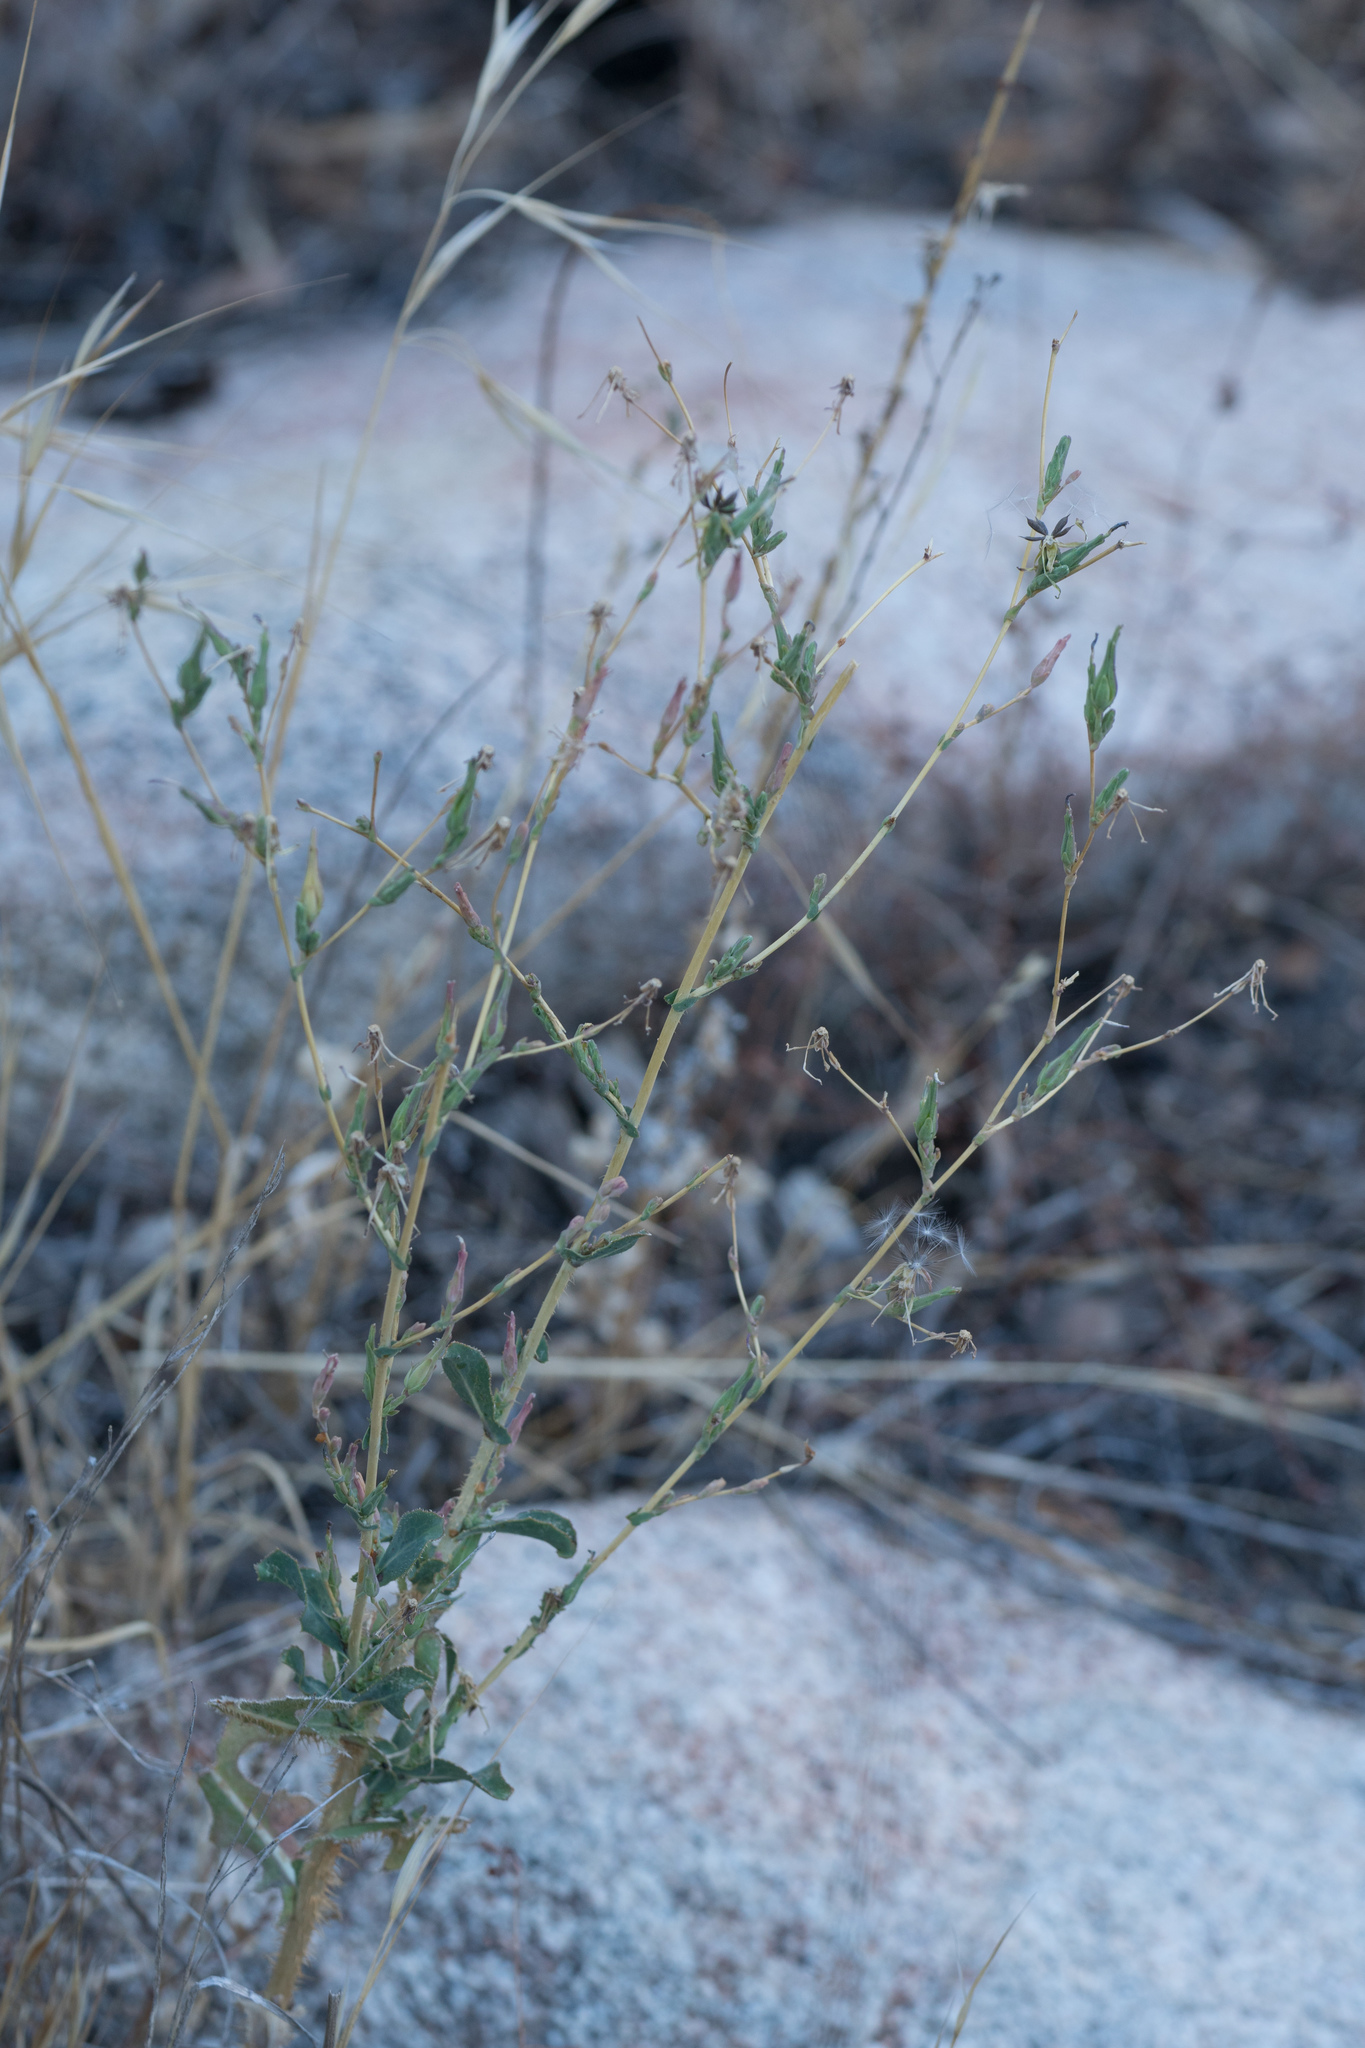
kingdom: Plantae
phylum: Tracheophyta
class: Magnoliopsida
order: Asterales
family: Asteraceae
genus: Lactuca
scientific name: Lactuca serriola
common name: Prickly lettuce
